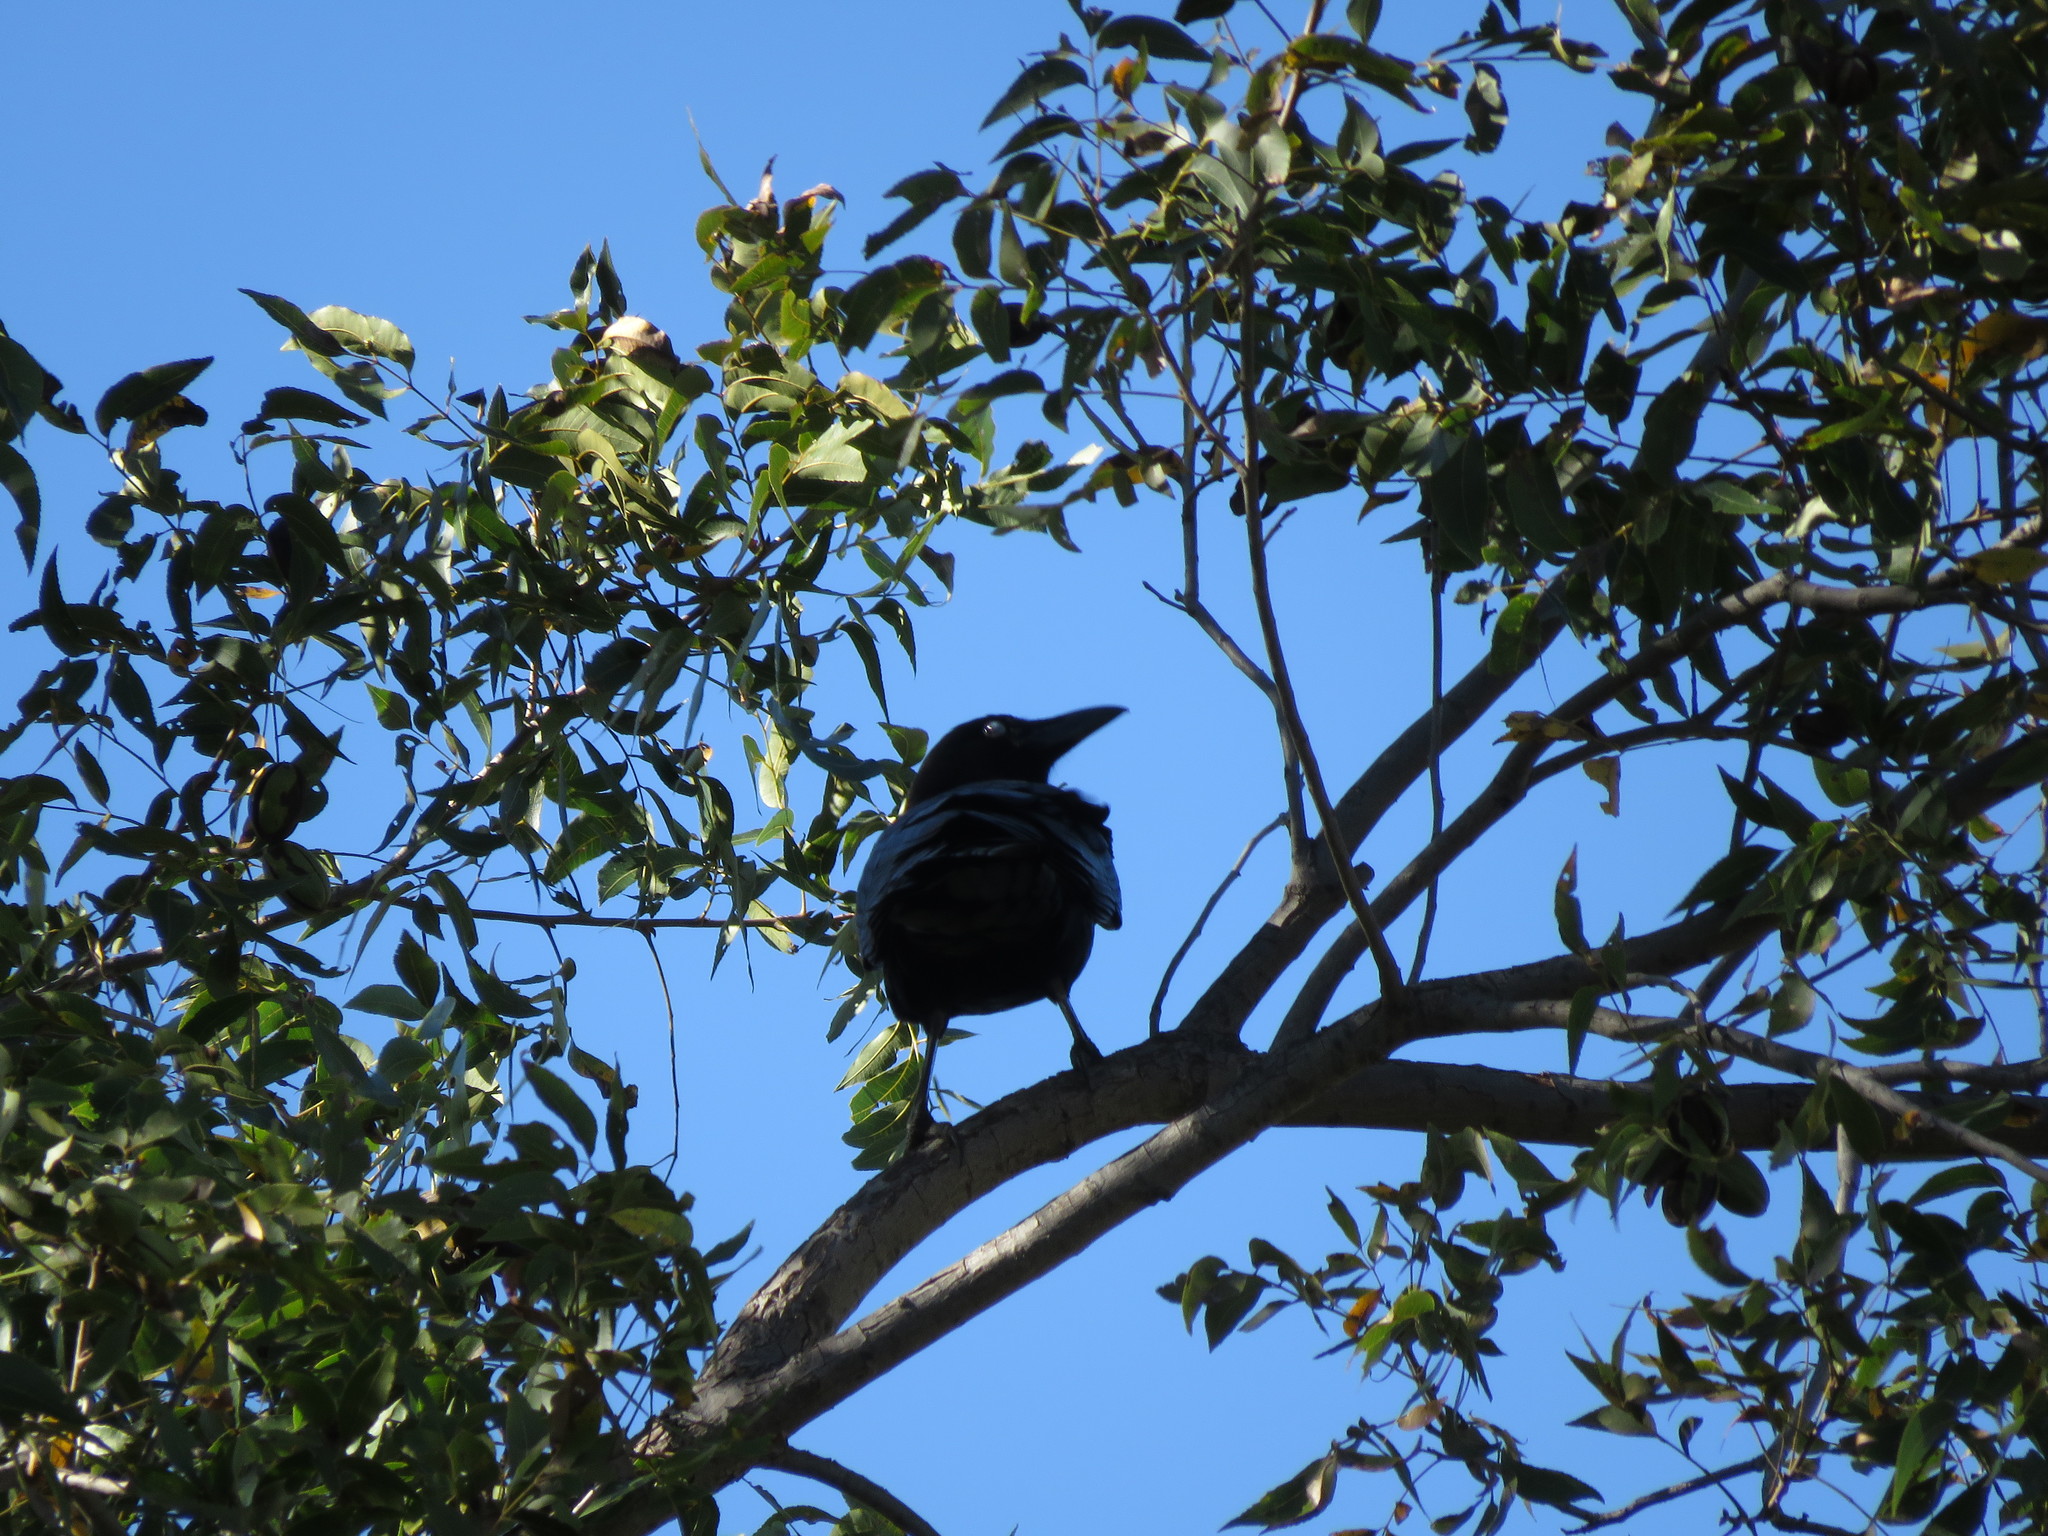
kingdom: Animalia
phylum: Chordata
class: Aves
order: Passeriformes
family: Corvidae
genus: Corvus
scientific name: Corvus brachyrhynchos
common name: American crow
